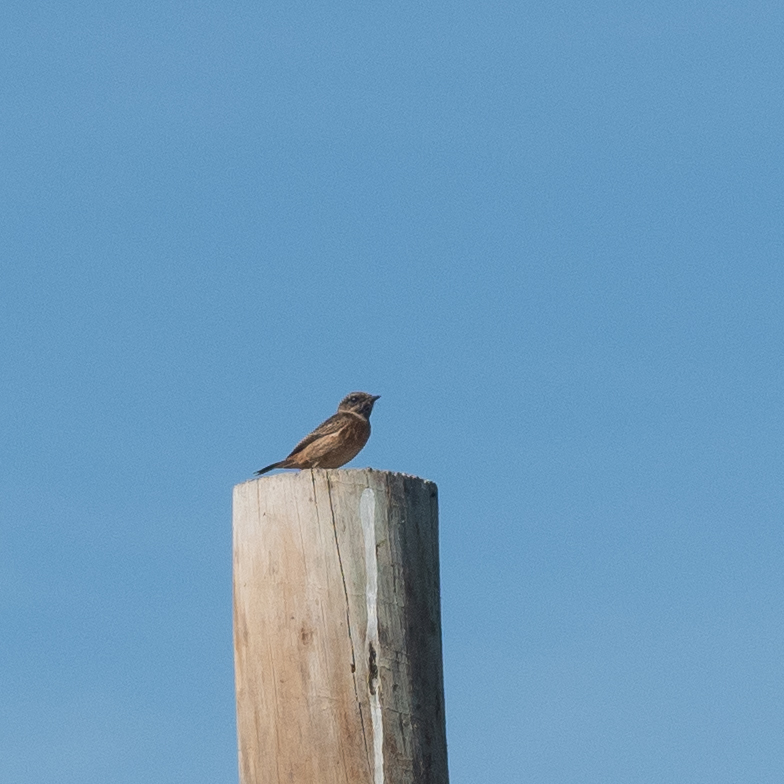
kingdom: Animalia
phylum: Chordata
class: Aves
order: Passeriformes
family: Muscicapidae
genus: Saxicola
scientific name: Saxicola rubicola
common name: European stonechat
